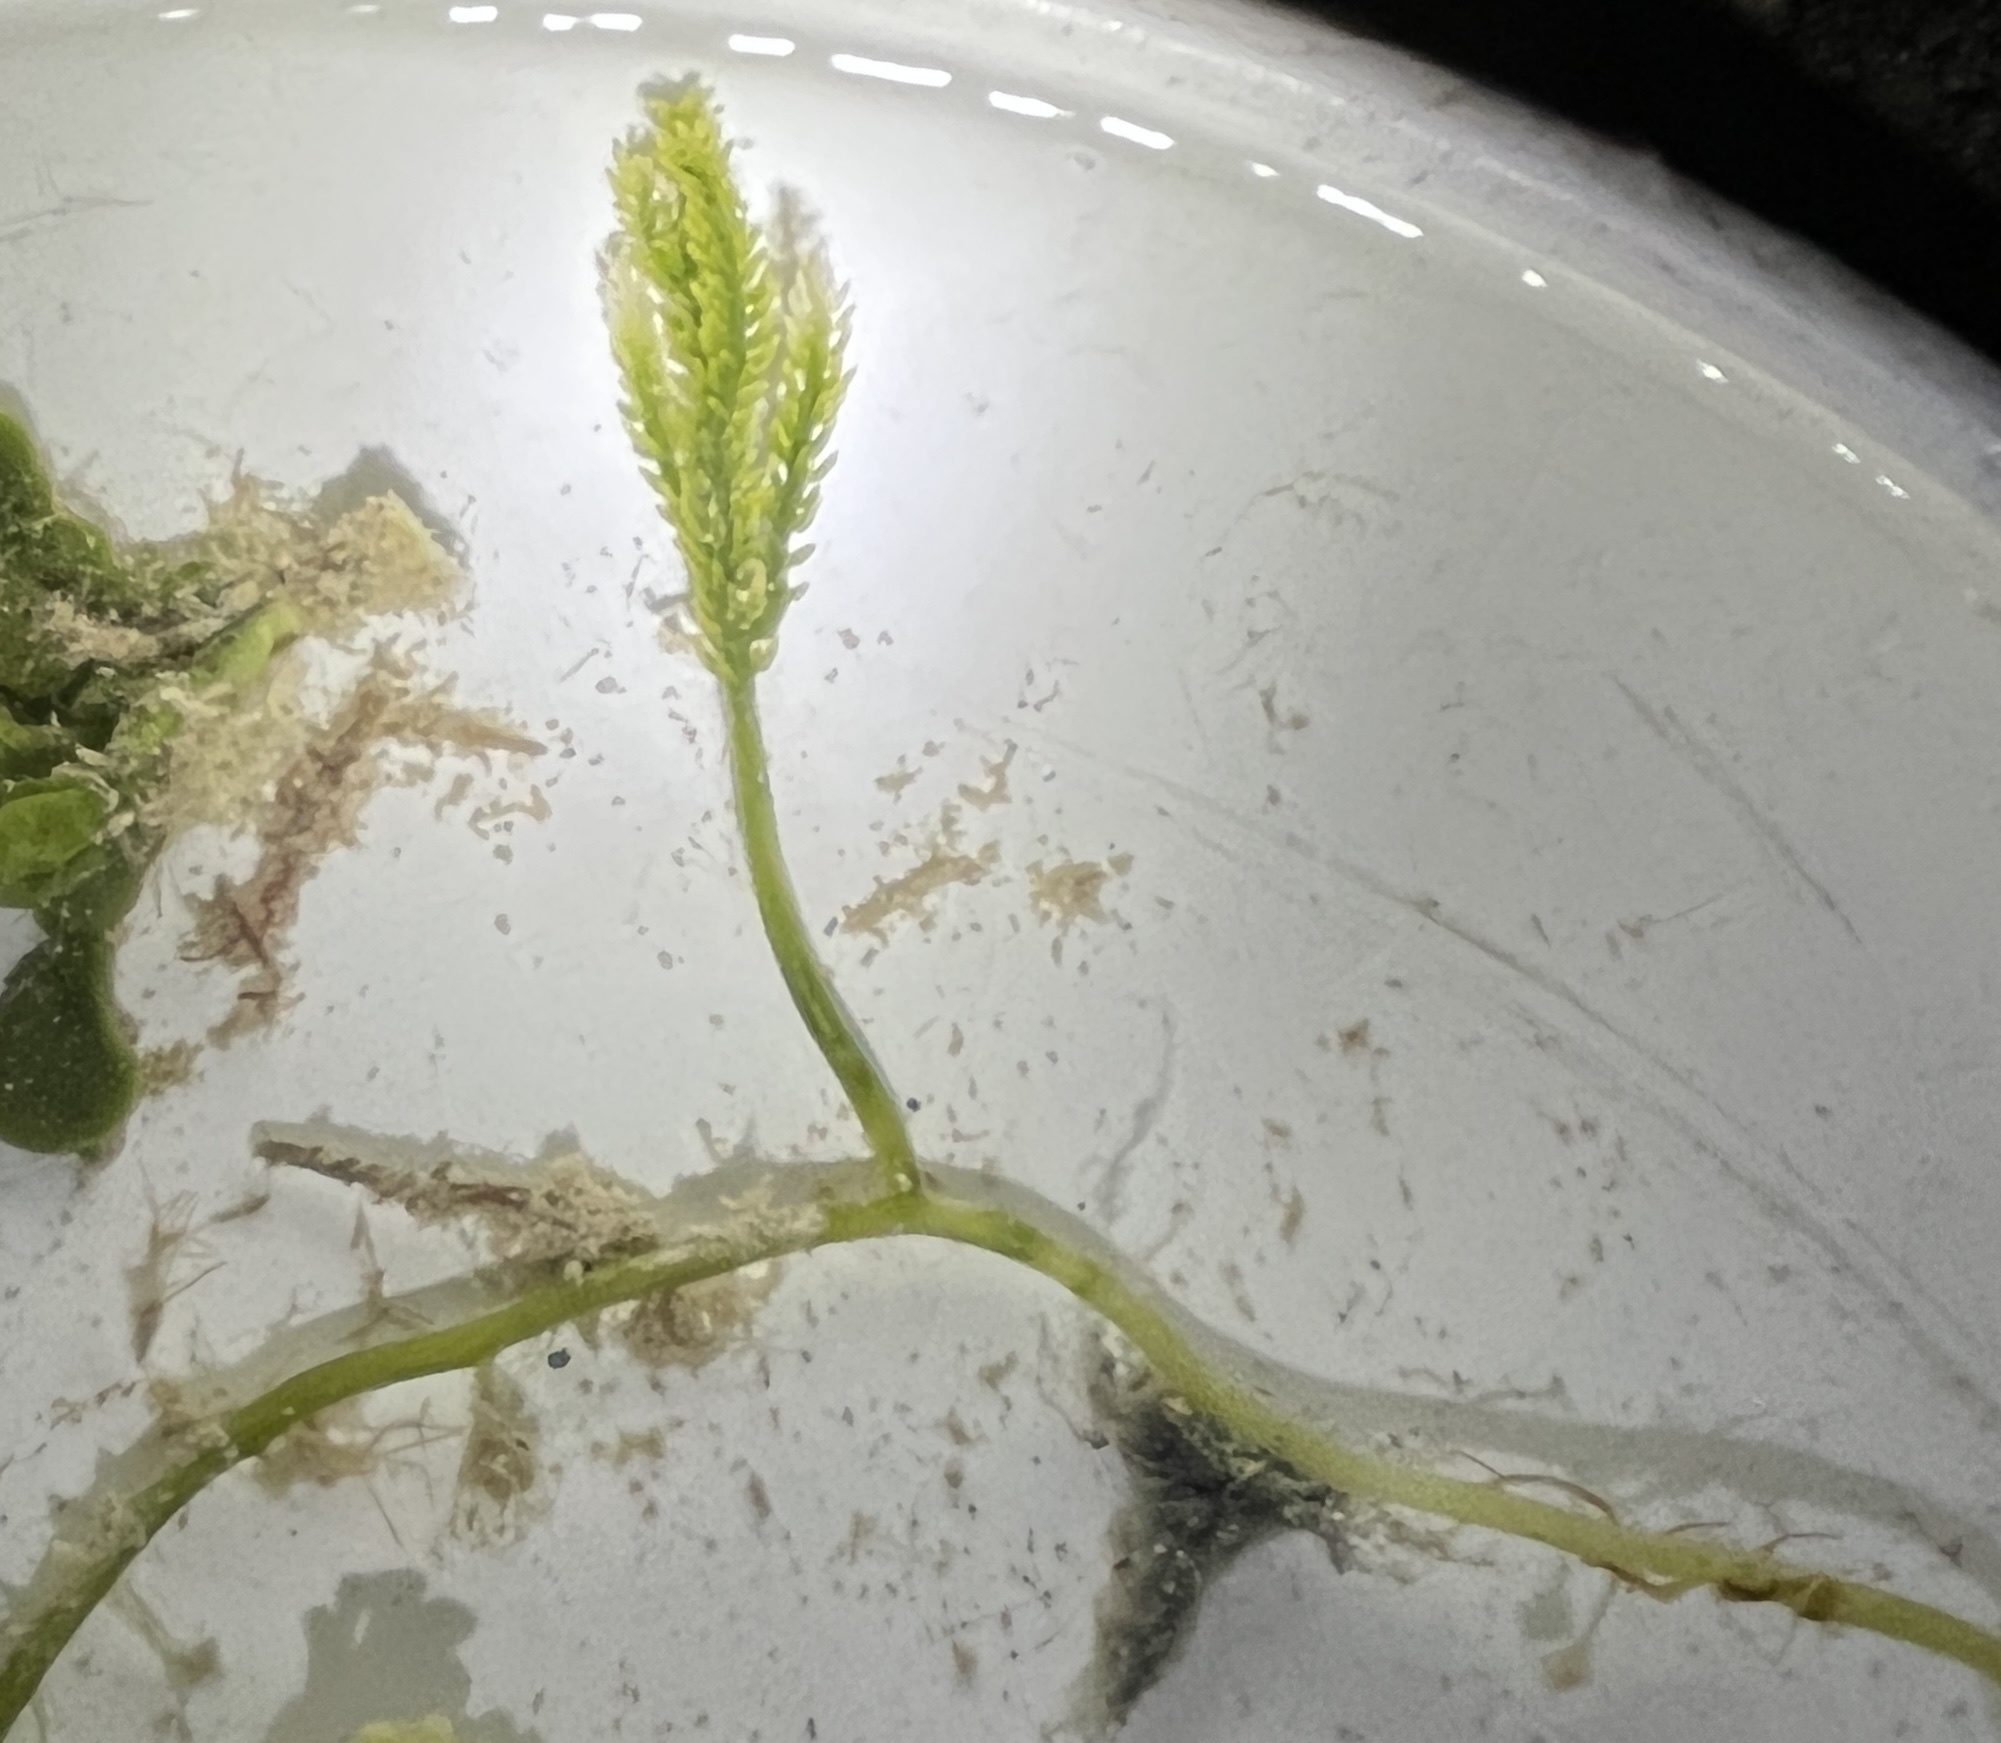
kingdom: Plantae
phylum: Chlorophyta
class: Ulvophyceae
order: Bryopsidales
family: Caulerpaceae
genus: Caulerpa
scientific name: Caulerpa cupressoides
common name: Cactus tree algae
